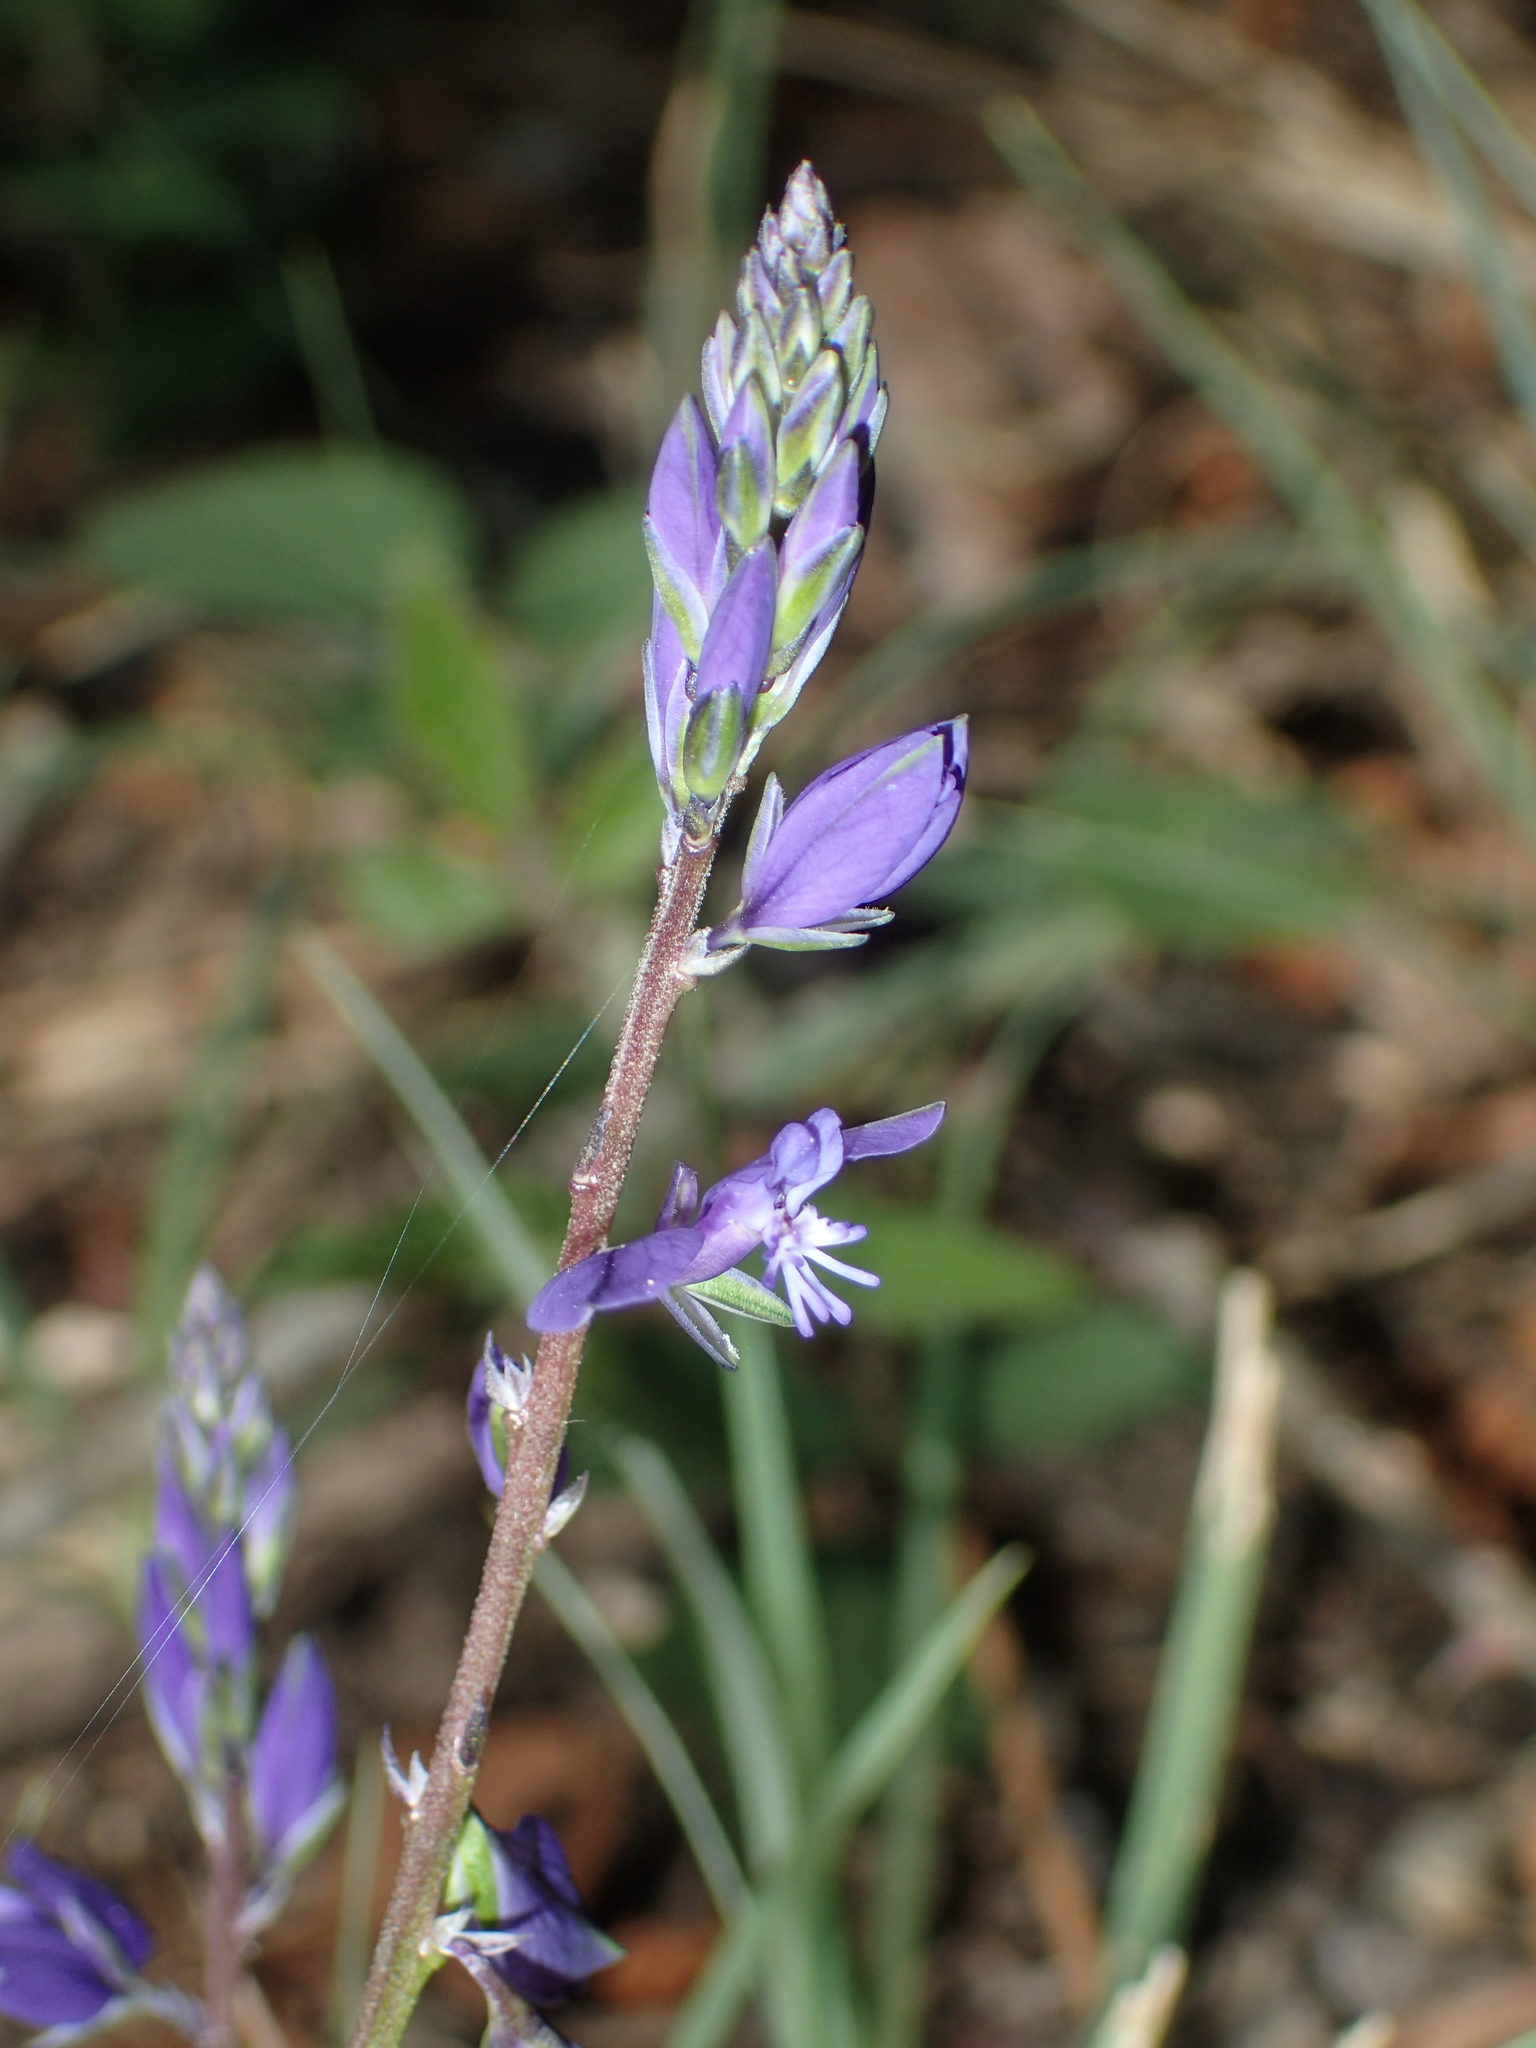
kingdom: Plantae
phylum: Tracheophyta
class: Magnoliopsida
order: Fabales
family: Polygalaceae
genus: Polygala
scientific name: Polygala vulgaris
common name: Common milkwort
